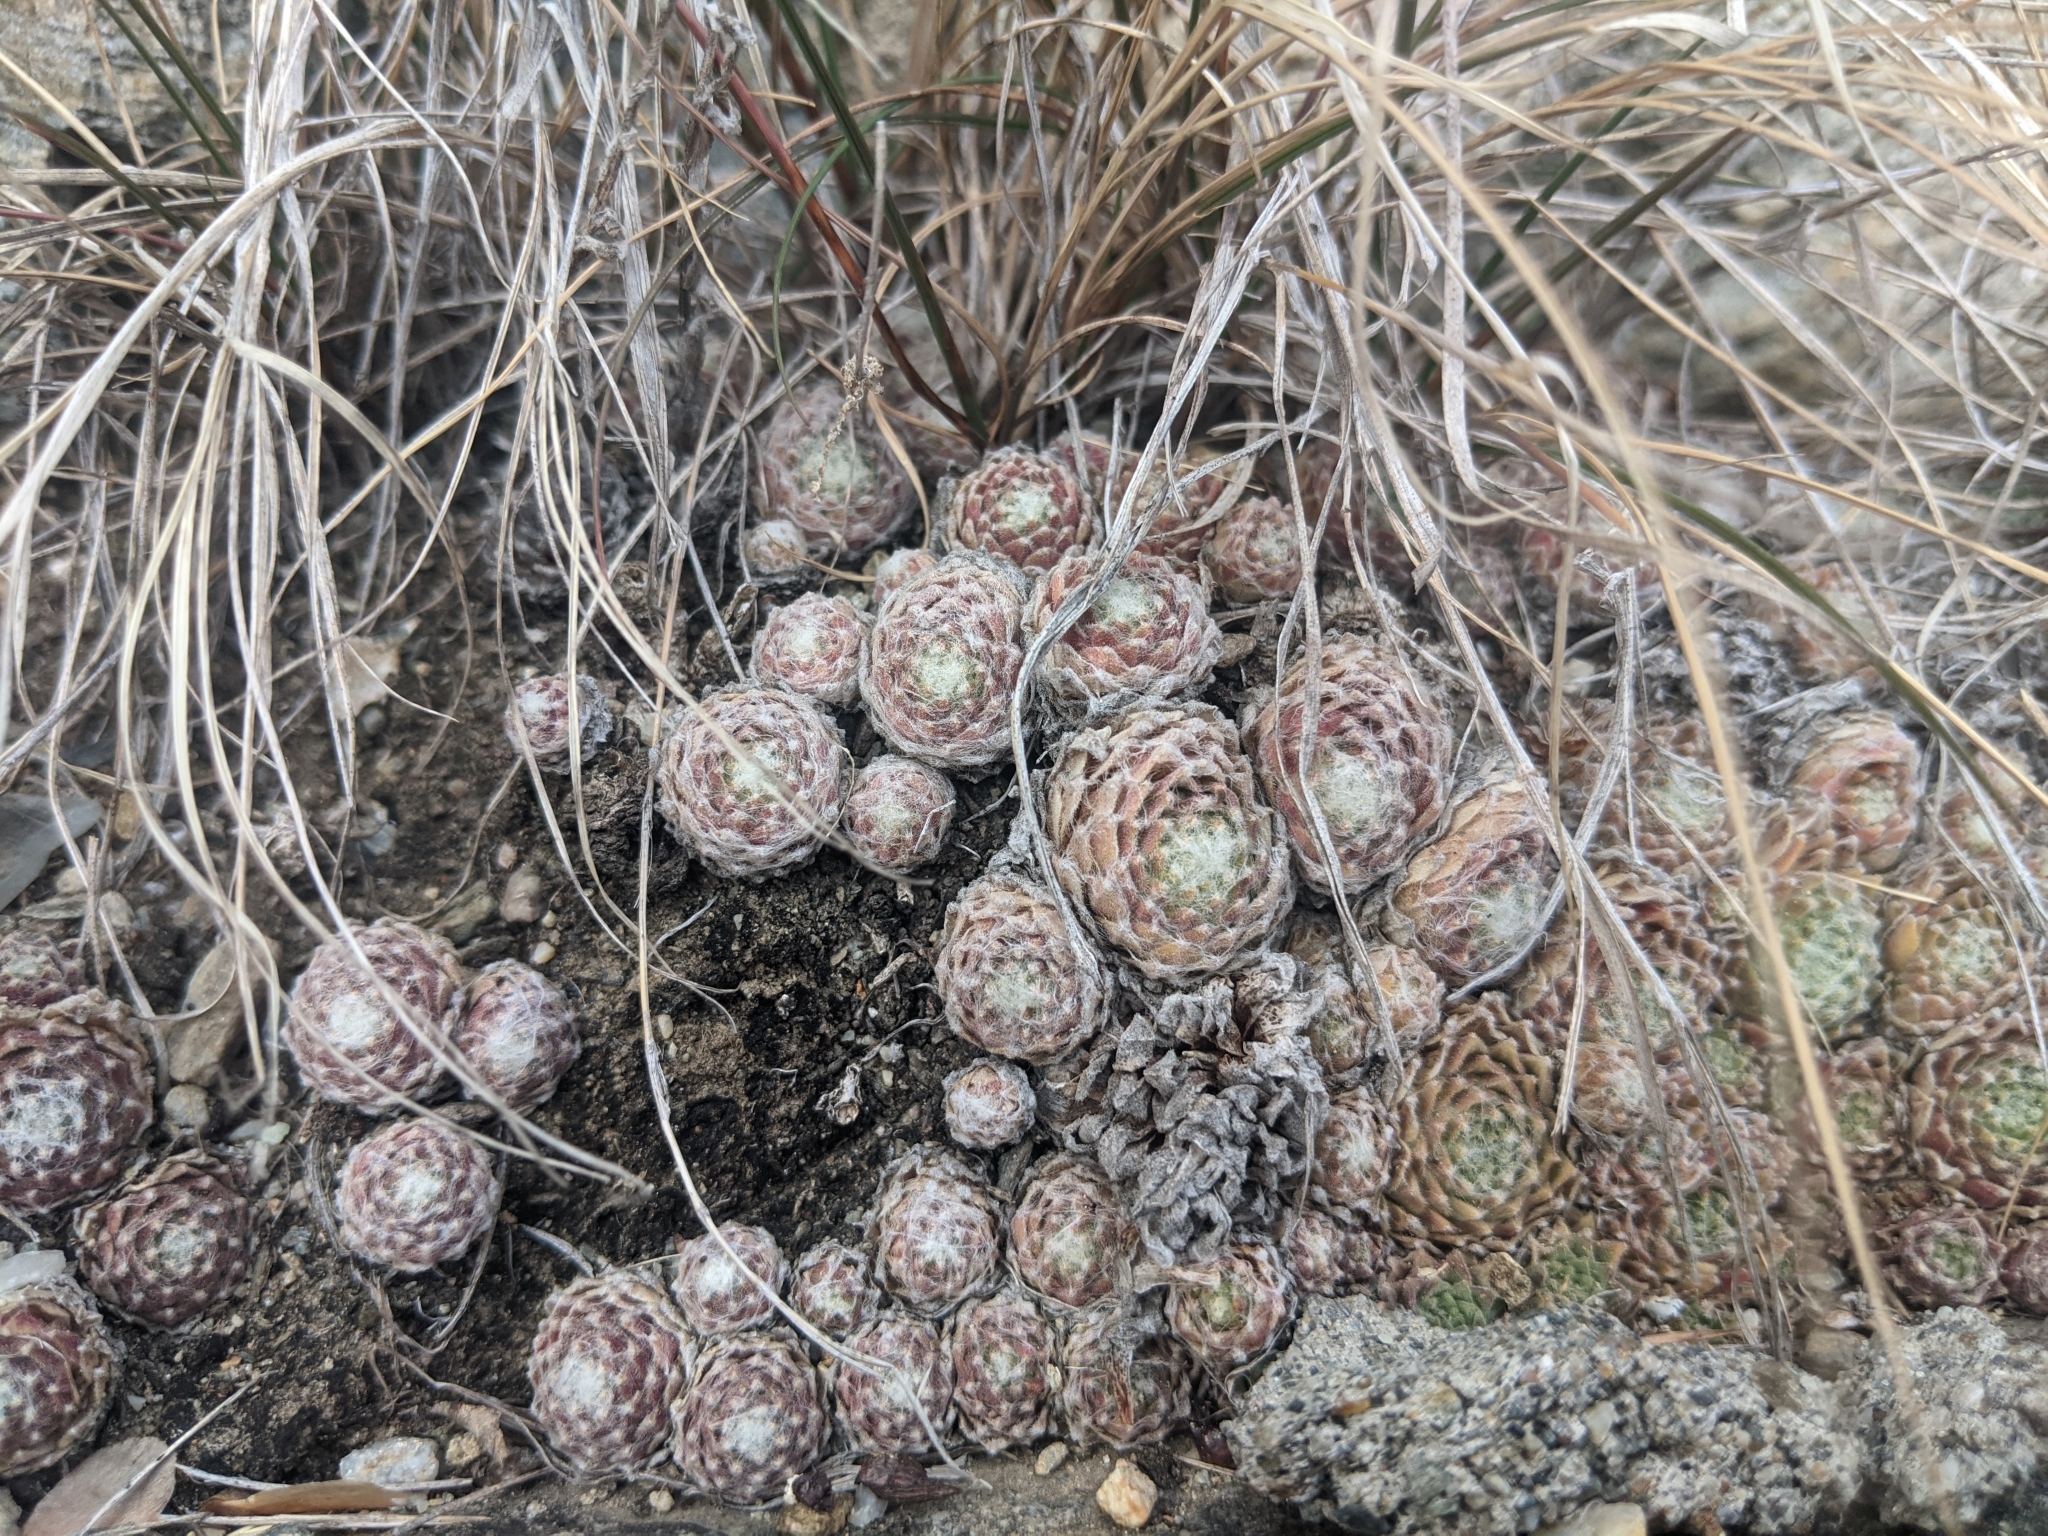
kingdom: Plantae
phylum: Tracheophyta
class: Magnoliopsida
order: Saxifragales
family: Crassulaceae
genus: Sempervivum
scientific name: Sempervivum arachnoideum
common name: Cobweb house-leek
